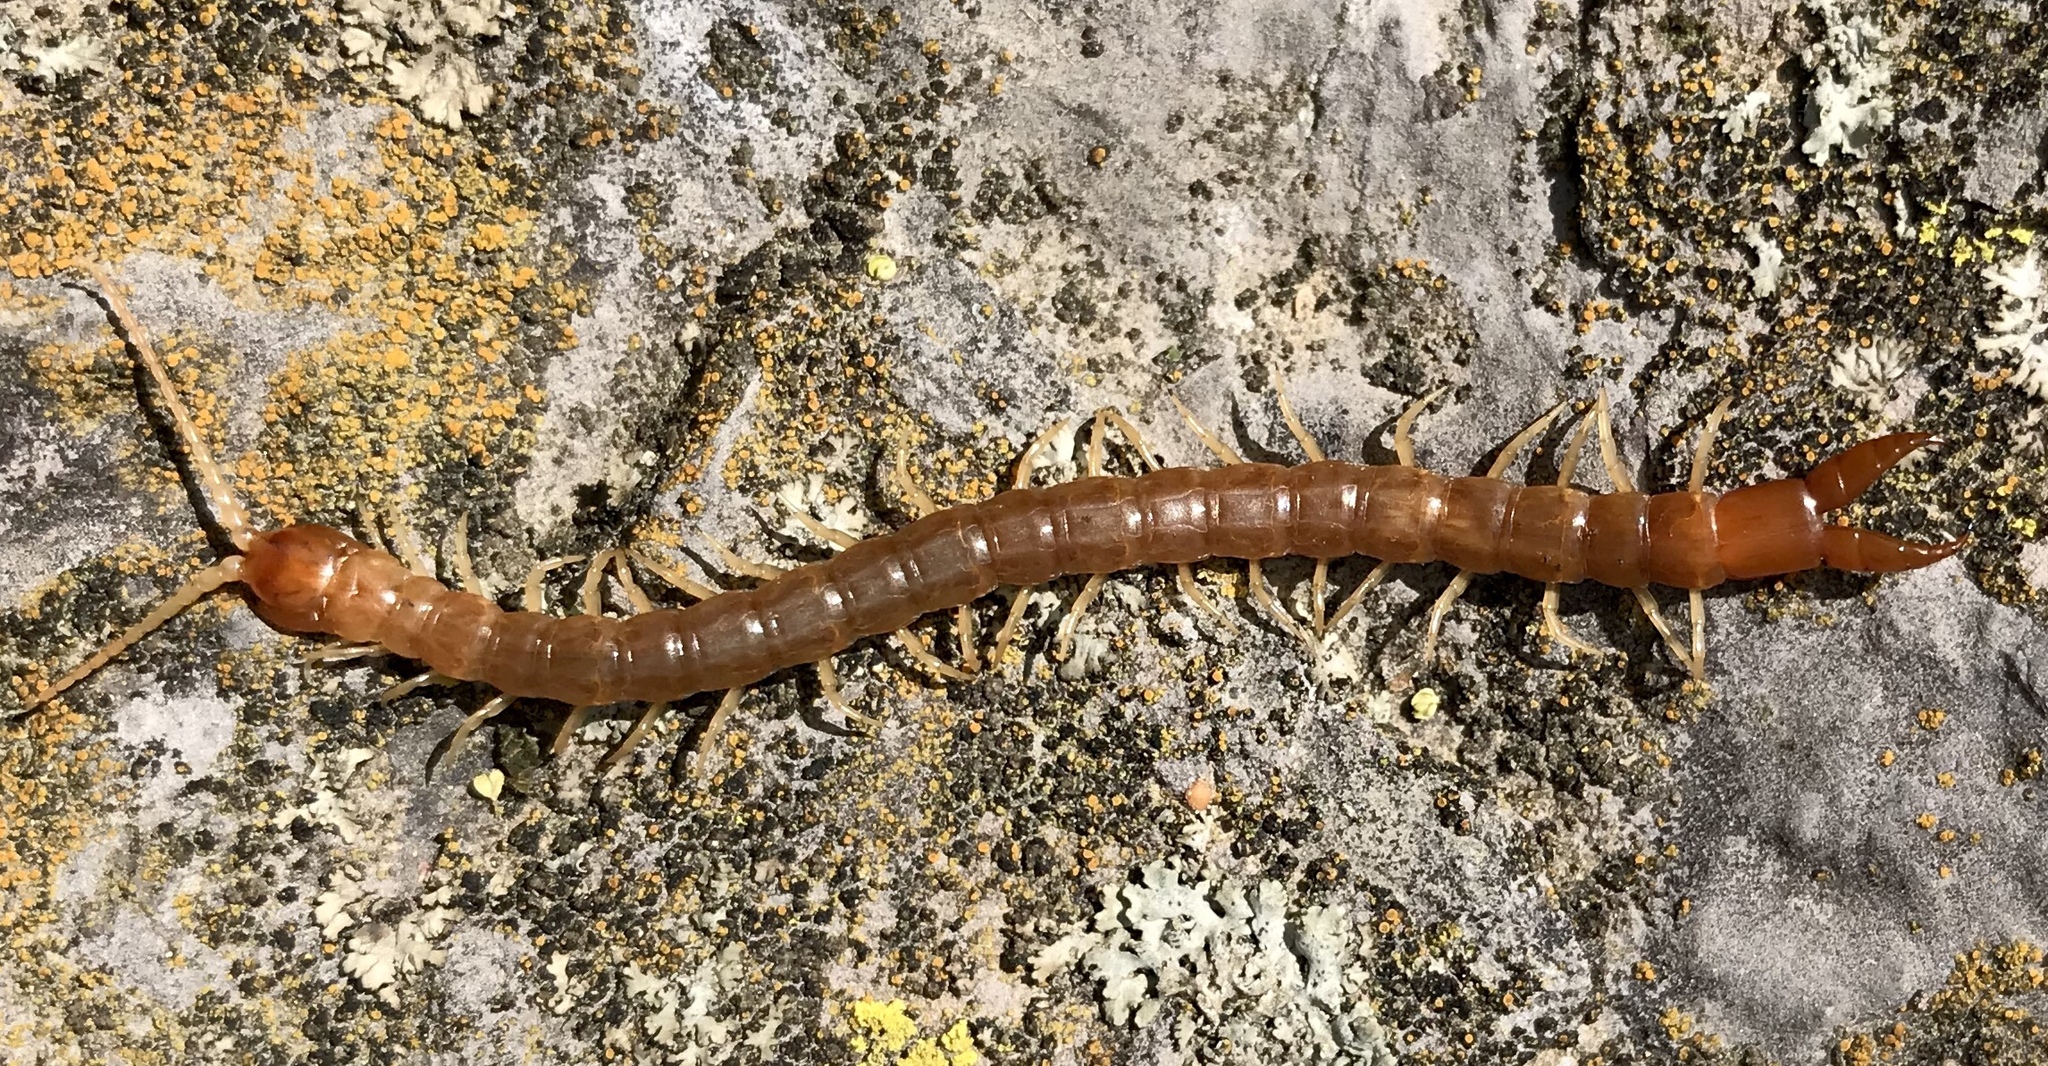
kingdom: Animalia
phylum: Arthropoda
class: Chilopoda
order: Scolopendromorpha
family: Cryptopidae
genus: Theatops
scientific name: Theatops posticus
